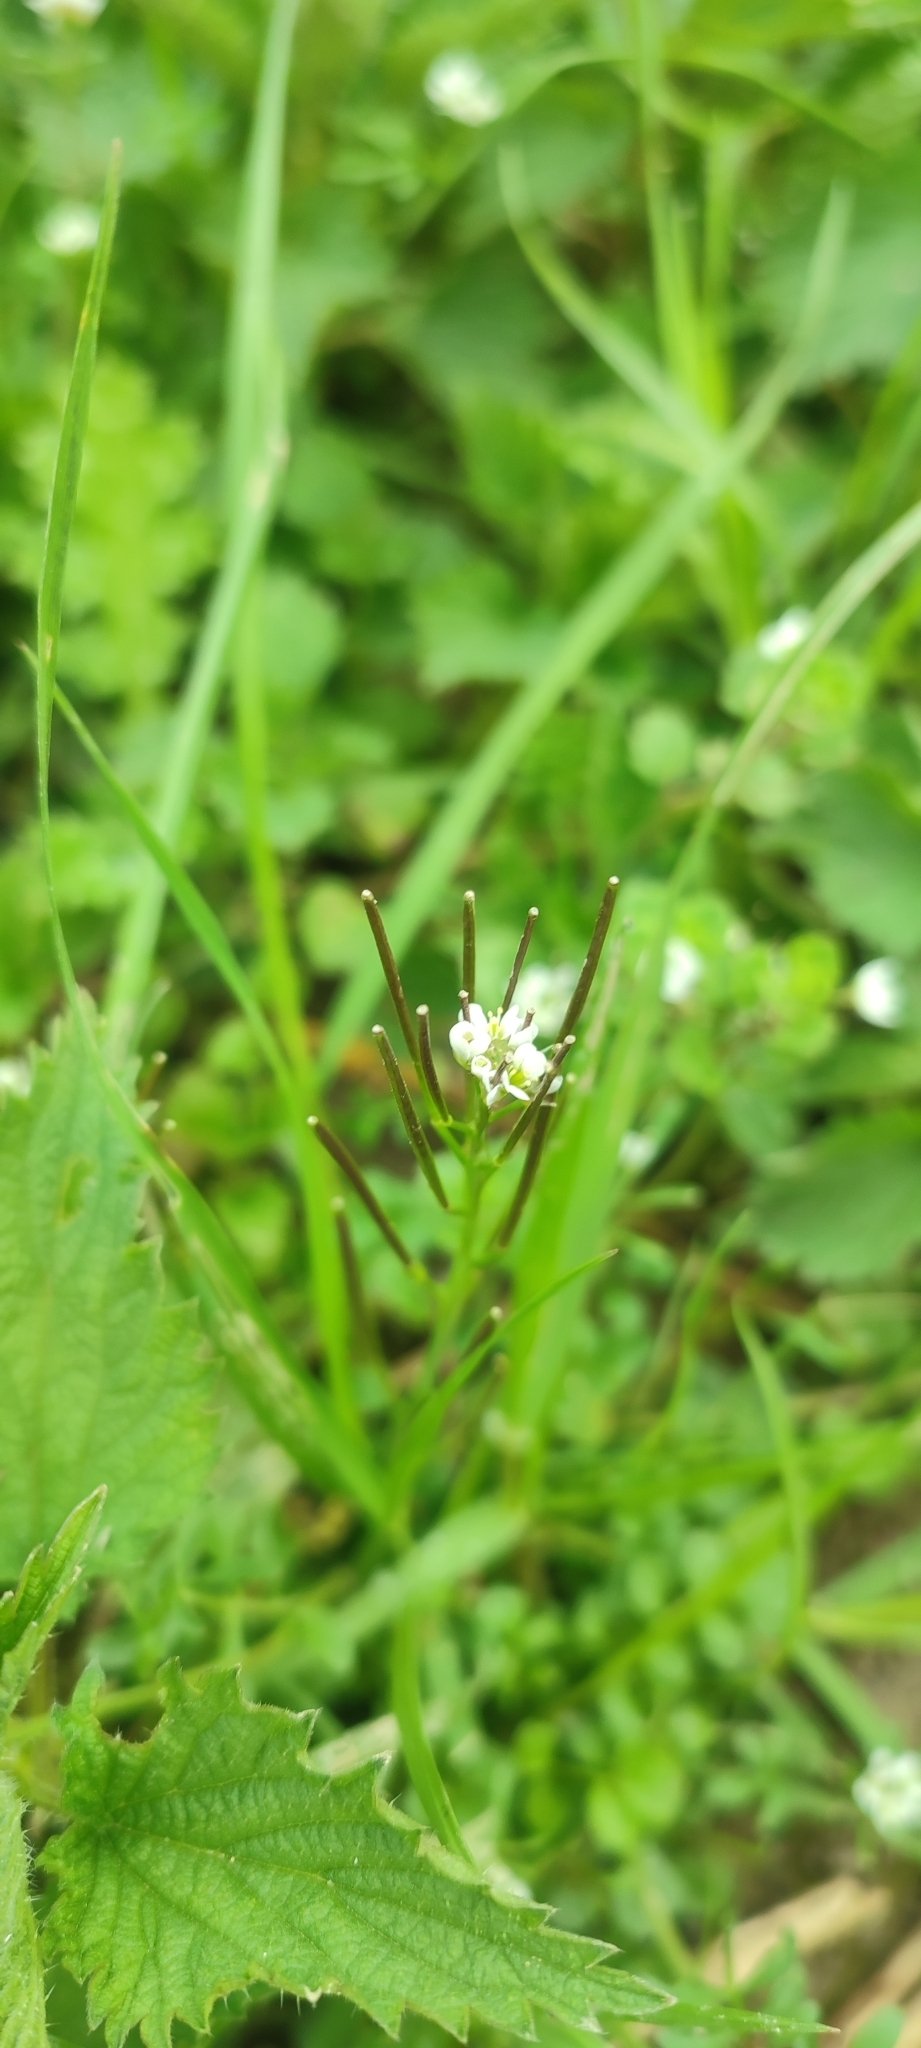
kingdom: Plantae
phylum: Tracheophyta
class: Magnoliopsida
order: Brassicales
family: Brassicaceae
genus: Cardamine
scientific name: Cardamine hirsuta
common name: Hairy bittercress
